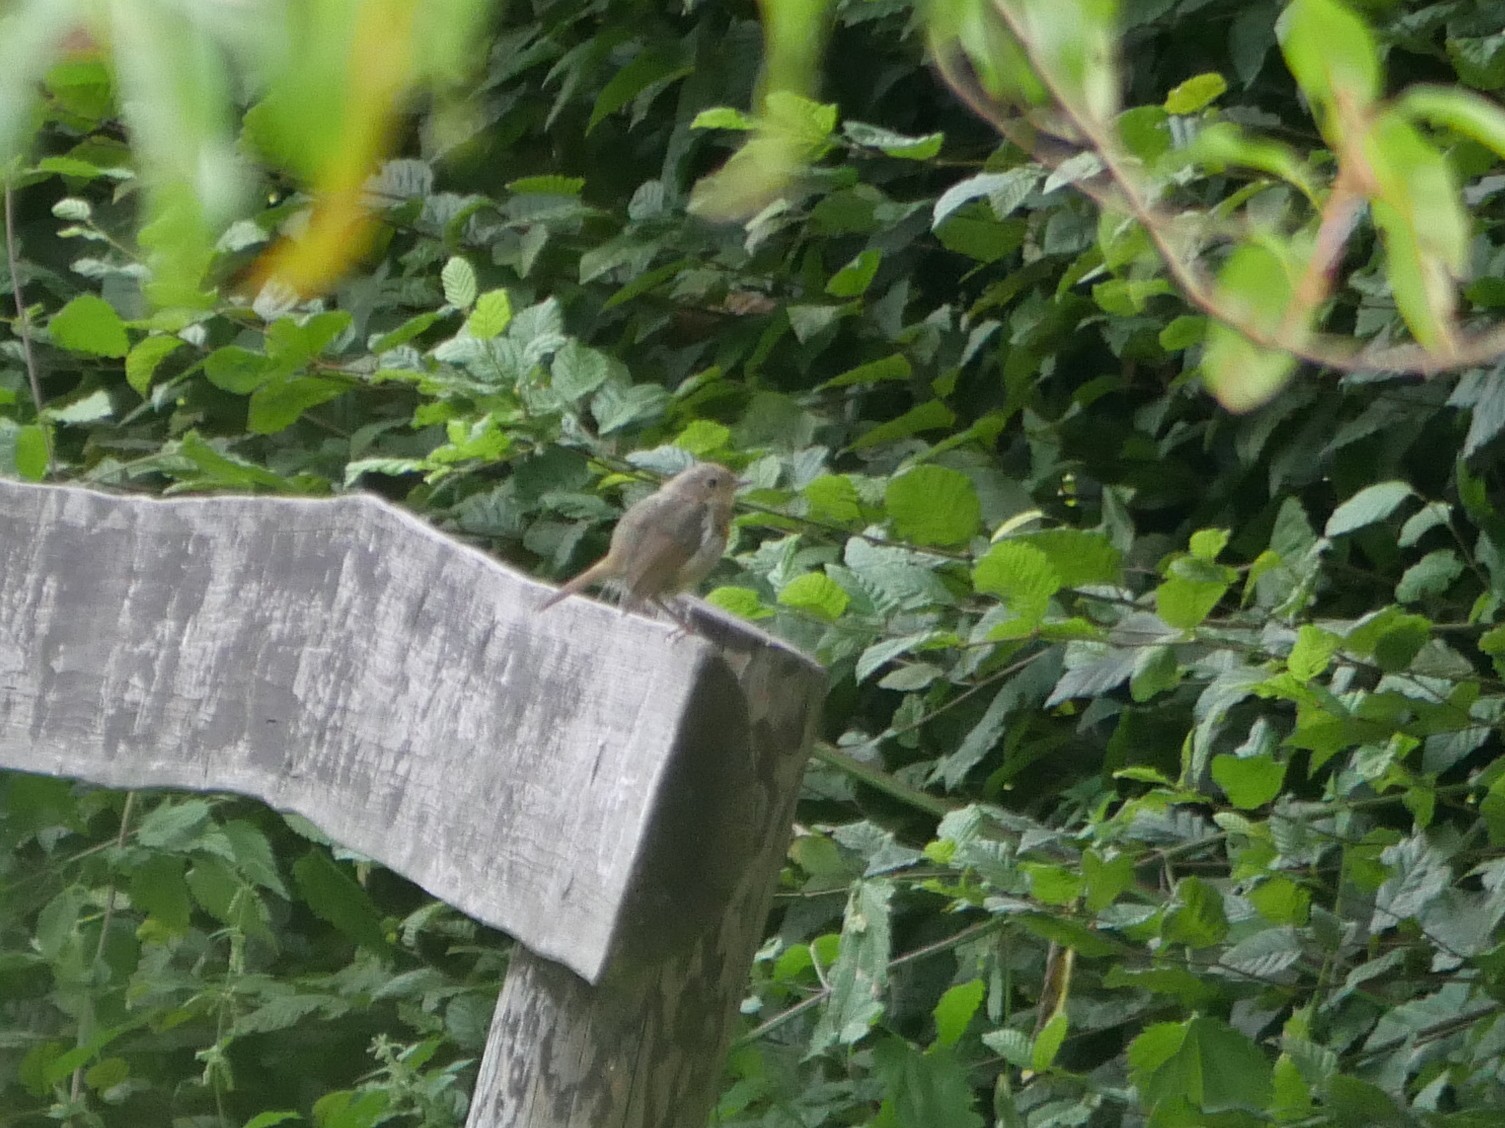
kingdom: Animalia
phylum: Chordata
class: Aves
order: Passeriformes
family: Muscicapidae
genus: Erithacus
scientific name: Erithacus rubecula
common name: European robin
